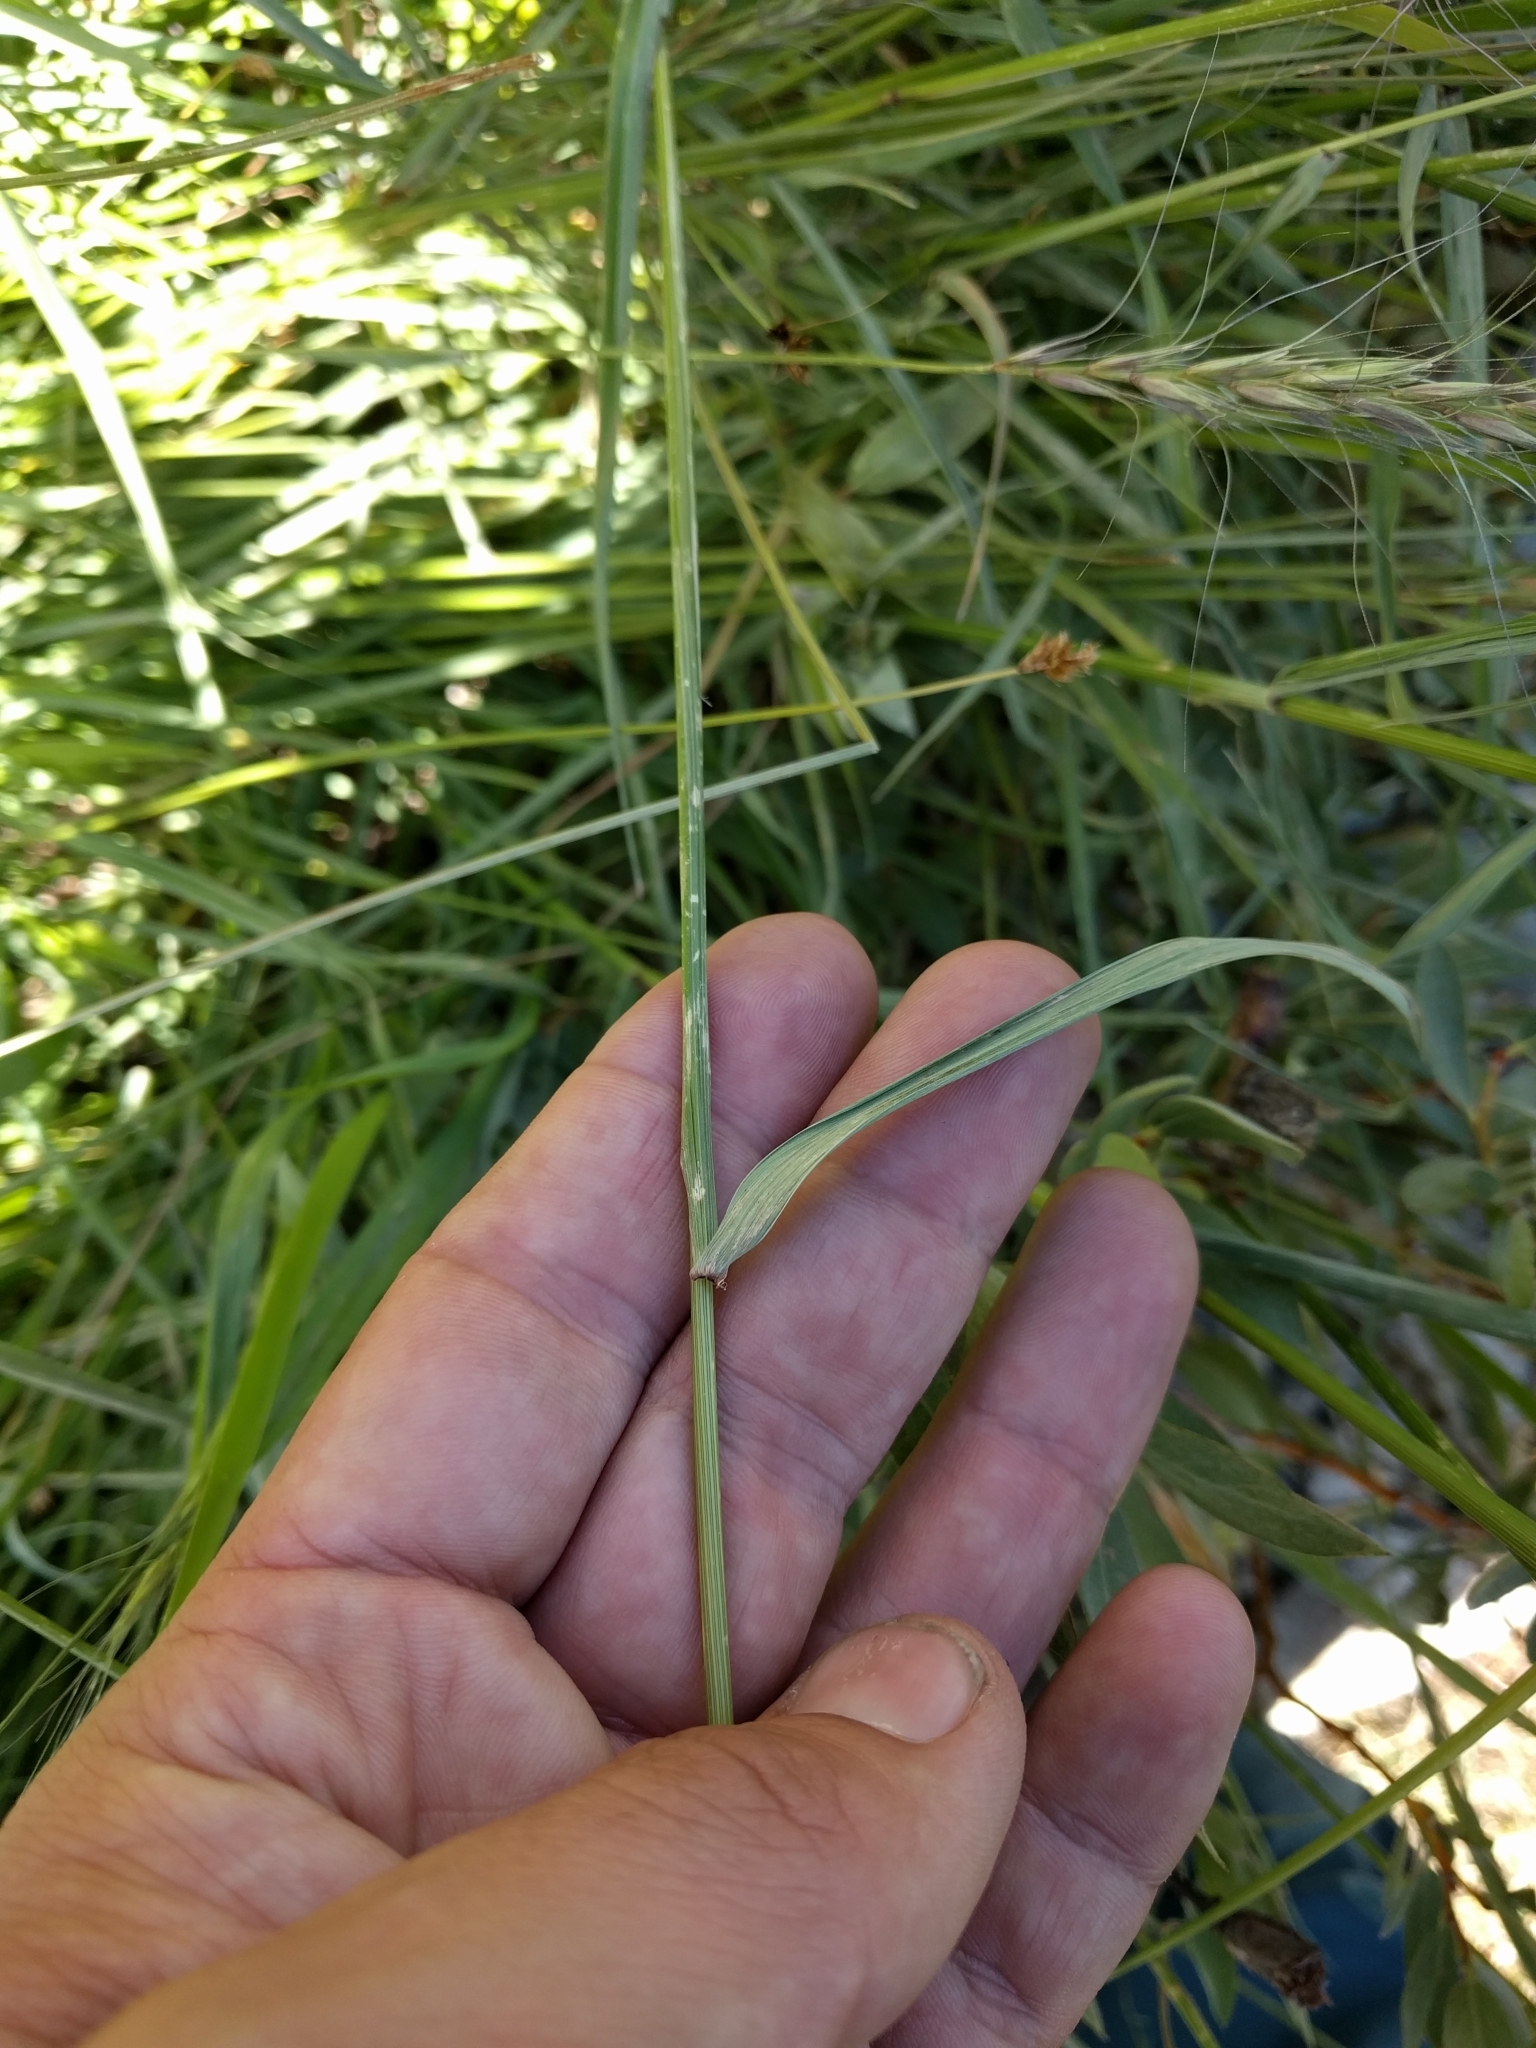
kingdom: Plantae
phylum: Tracheophyta
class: Liliopsida
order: Poales
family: Poaceae
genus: Elymus
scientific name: Elymus elymoides
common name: Bottlebrush squirreltail
